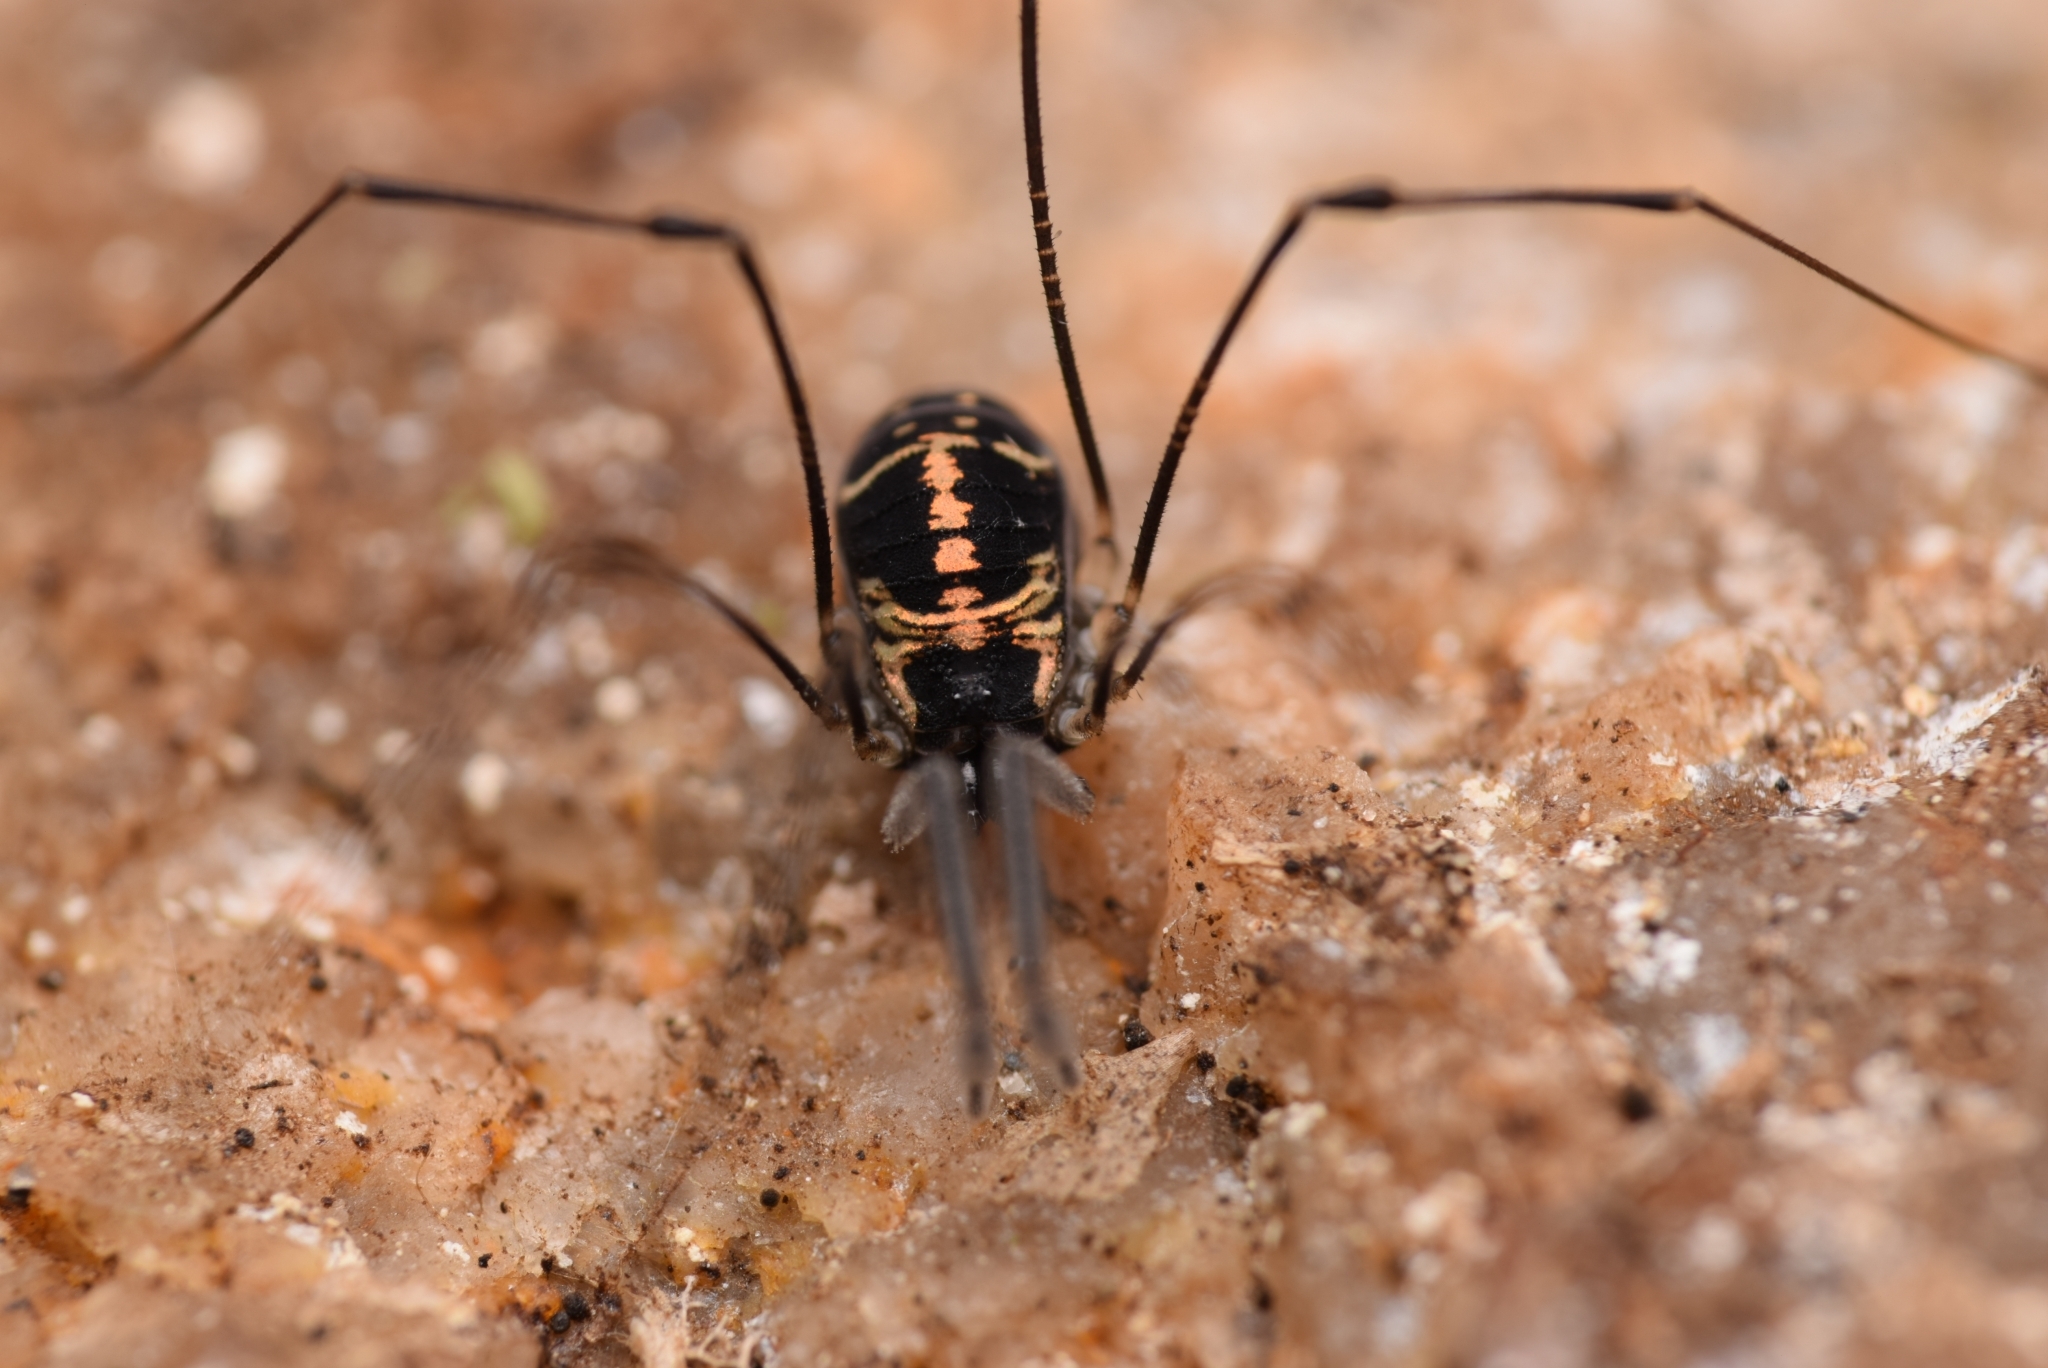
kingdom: Animalia
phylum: Arthropoda
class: Arachnida
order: Opiliones
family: Nemastomatidae
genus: Mitostoma
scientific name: Mitostoma pyrenaeum
